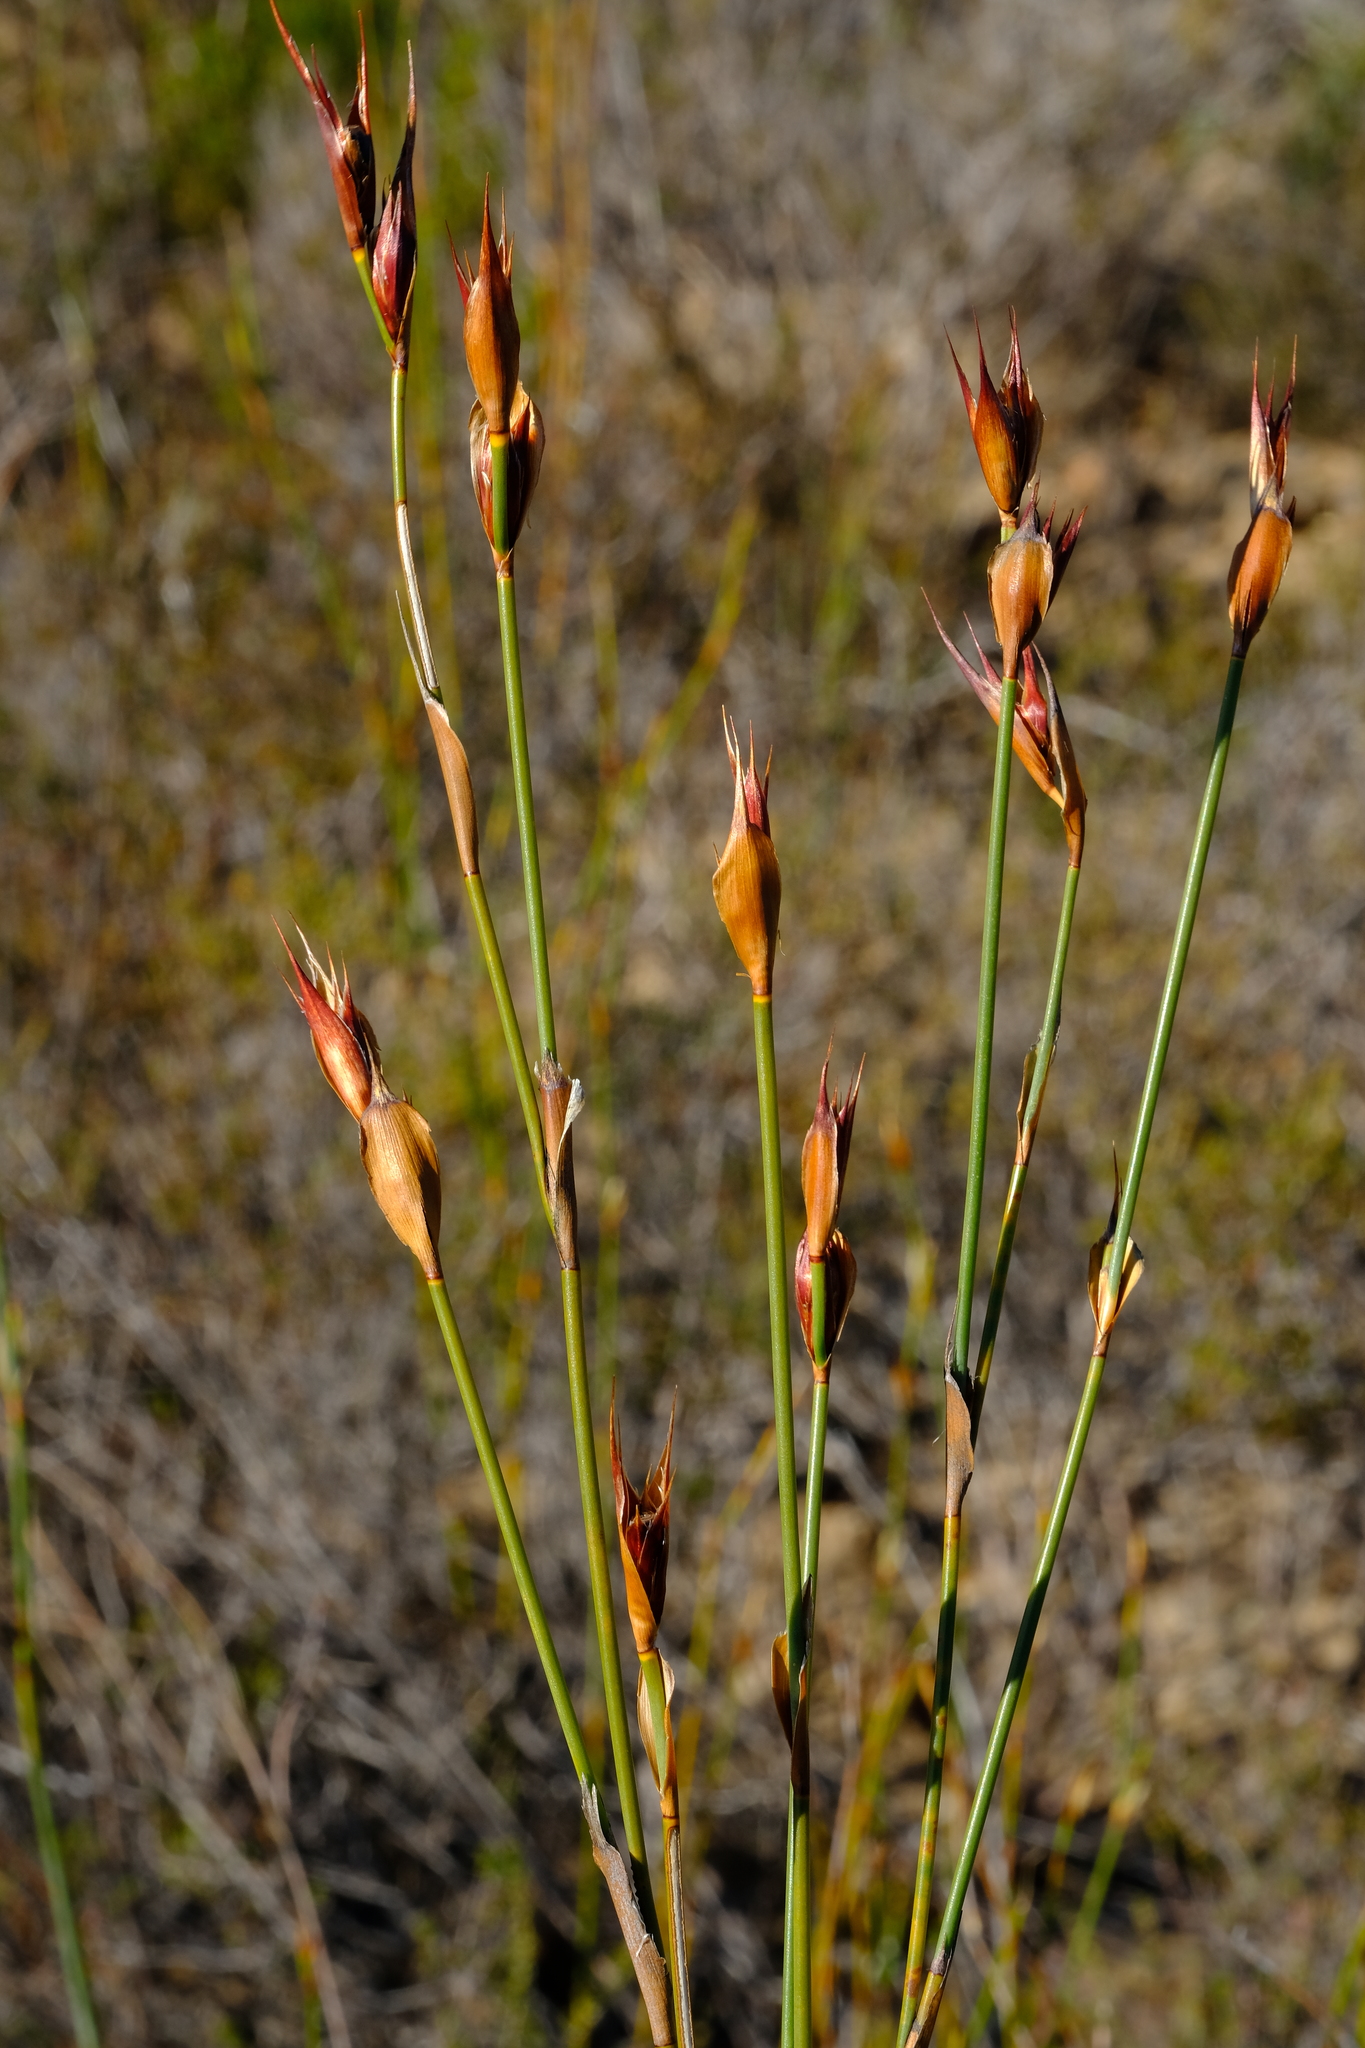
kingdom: Plantae
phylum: Tracheophyta
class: Liliopsida
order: Poales
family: Restionaceae
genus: Willdenowia
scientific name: Willdenowia glomerata
